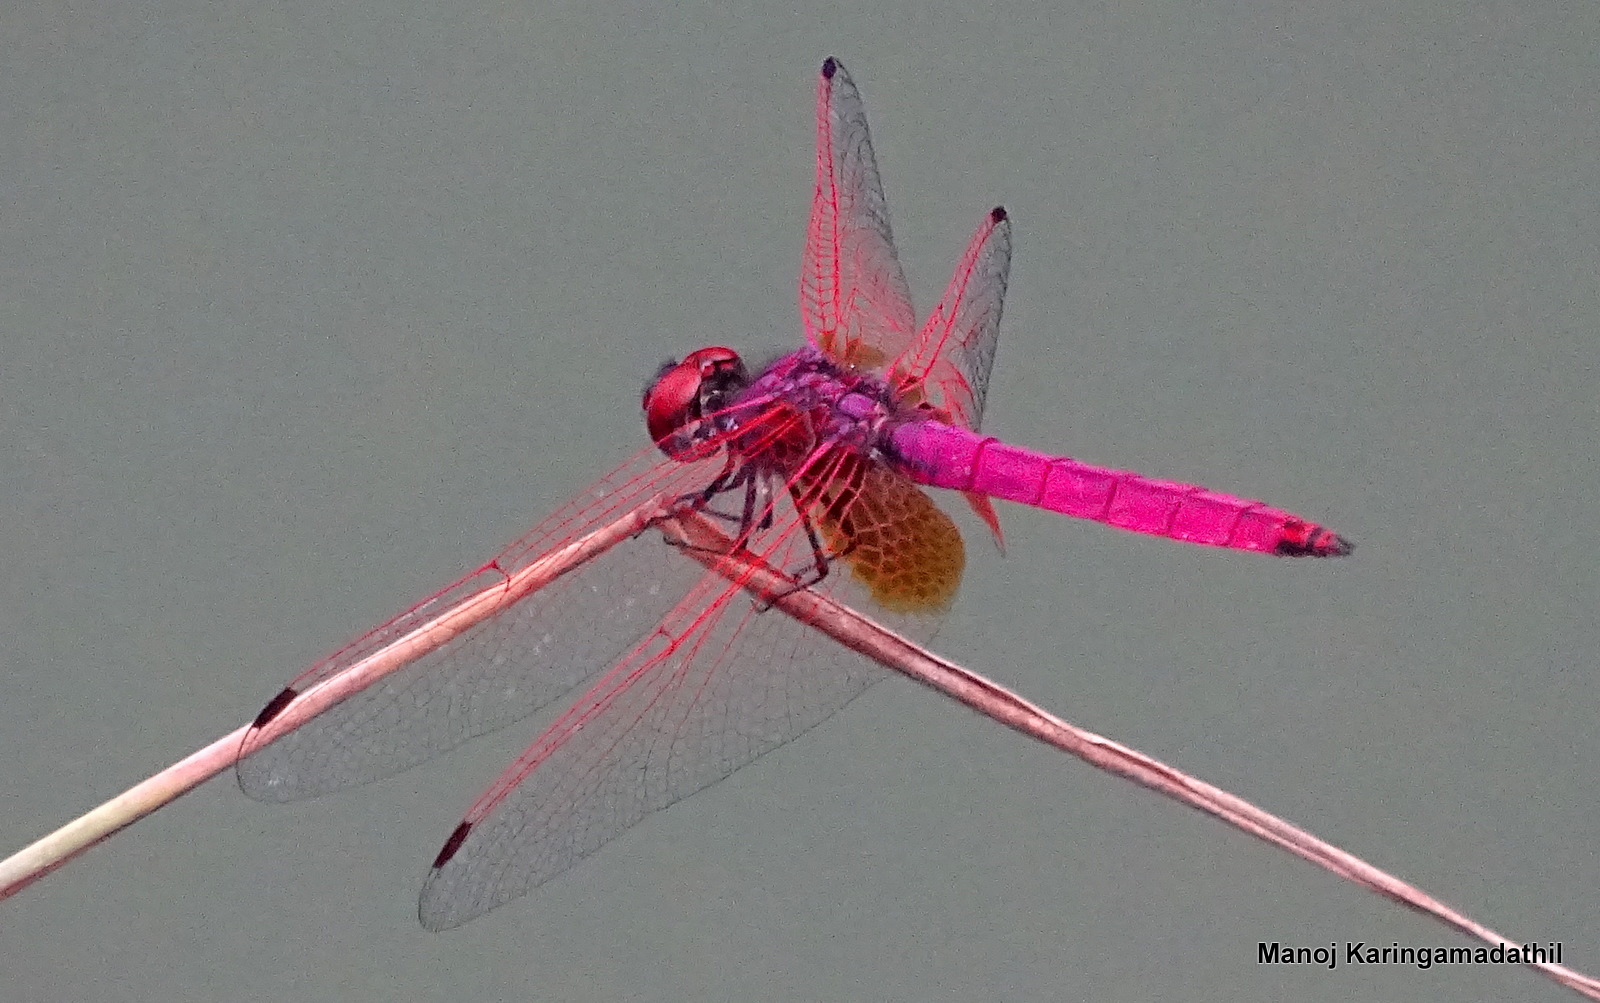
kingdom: Animalia
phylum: Arthropoda
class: Insecta
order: Odonata
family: Libellulidae
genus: Trithemis
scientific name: Trithemis aurora
